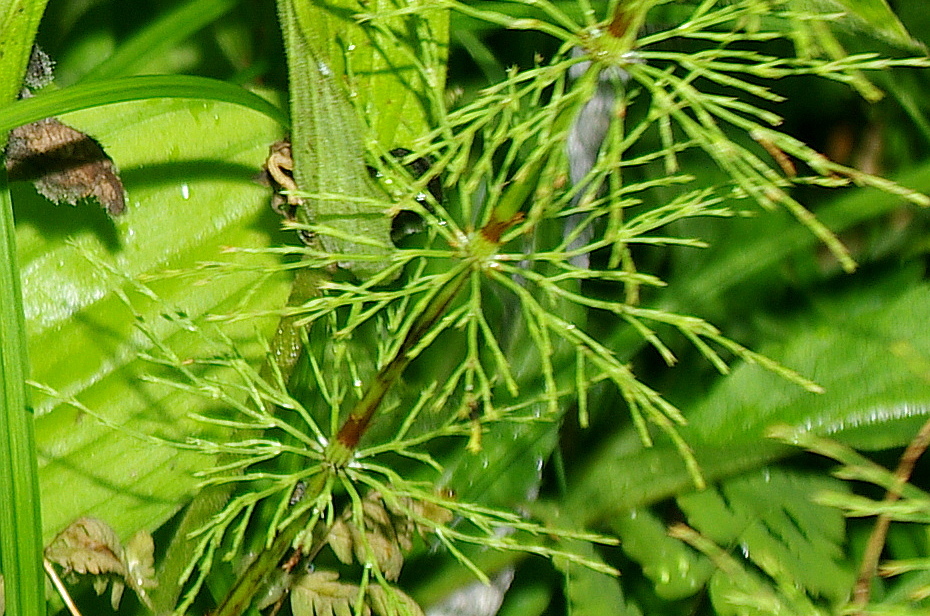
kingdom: Plantae
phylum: Tracheophyta
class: Polypodiopsida
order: Equisetales
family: Equisetaceae
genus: Equisetum
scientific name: Equisetum sylvaticum
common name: Wood horsetail
